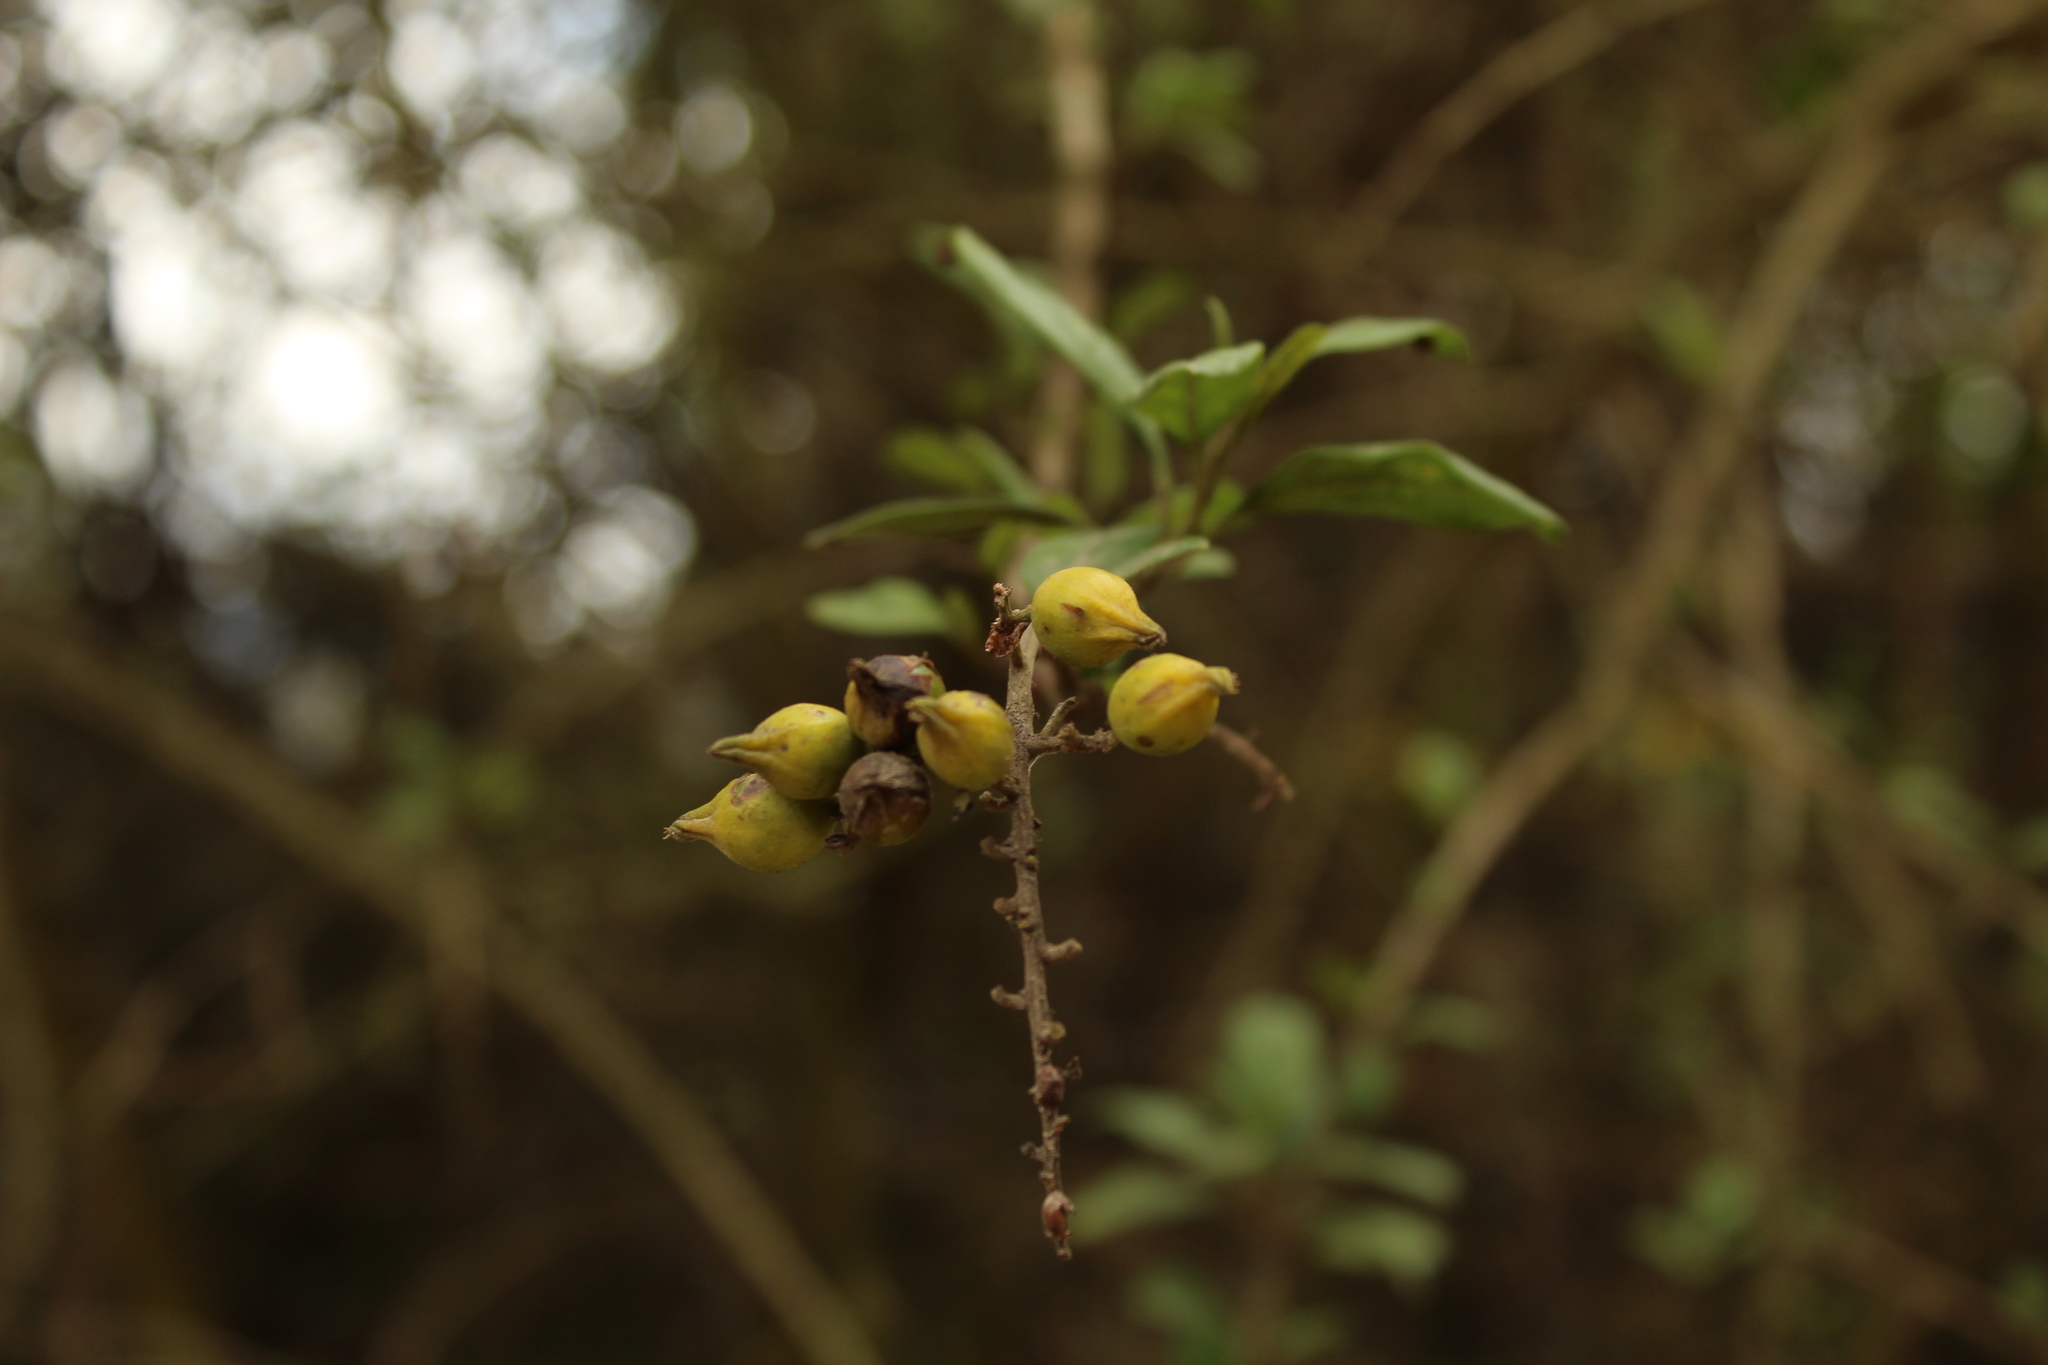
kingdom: Plantae
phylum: Tracheophyta
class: Magnoliopsida
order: Lamiales
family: Verbenaceae
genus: Duranta
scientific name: Duranta mutisii
